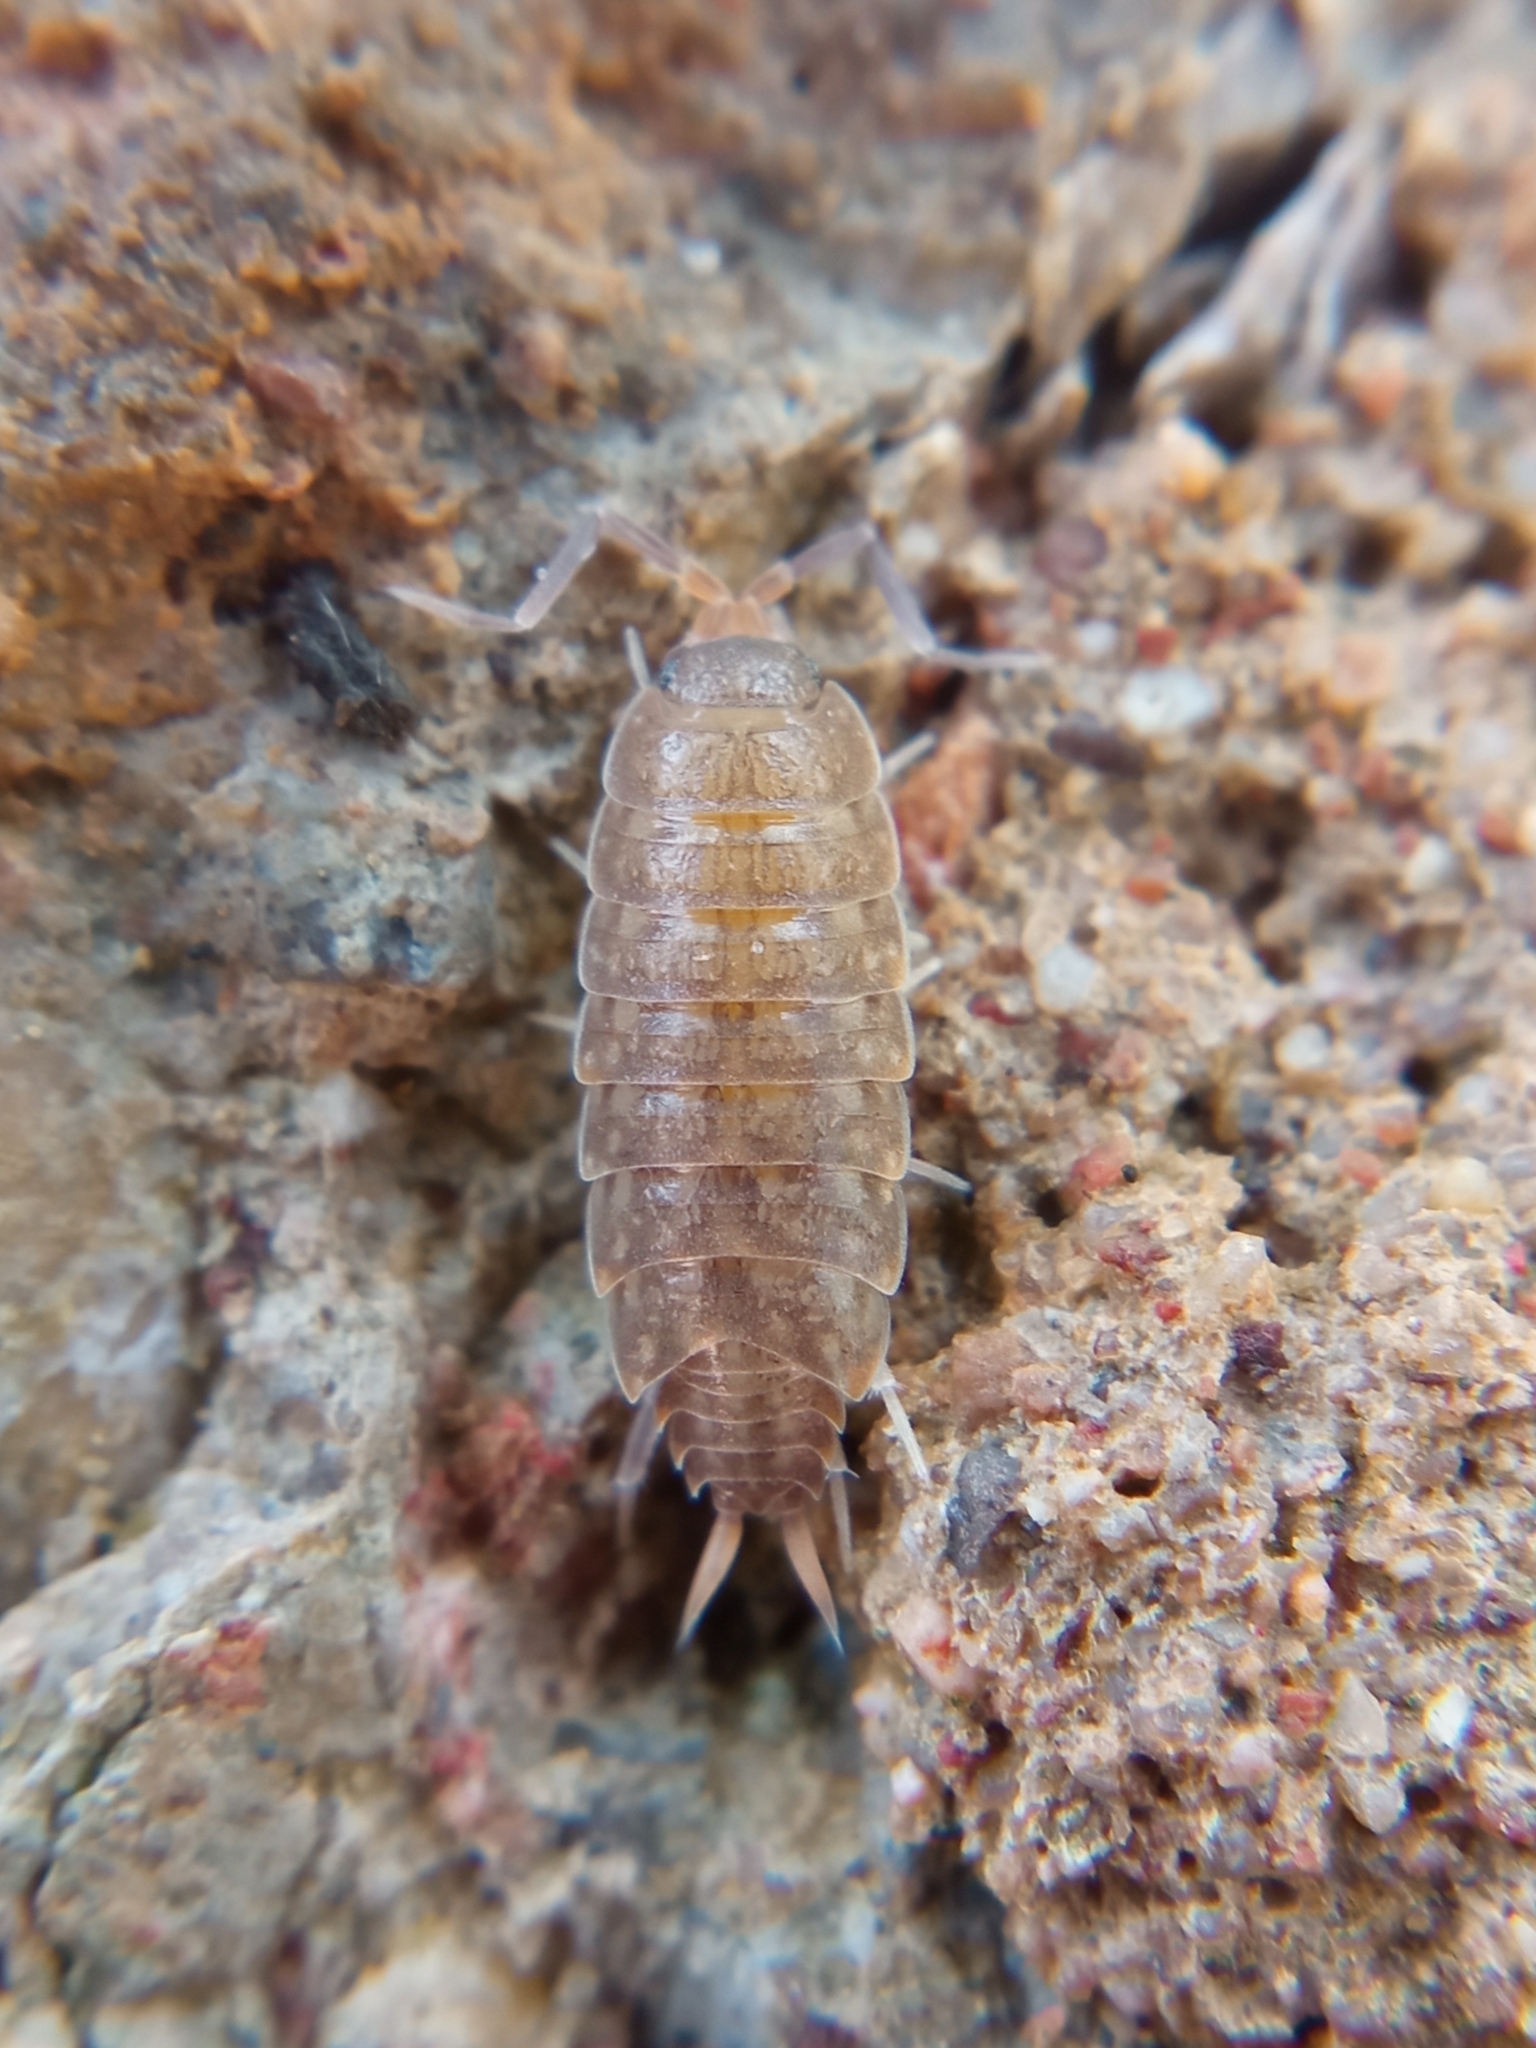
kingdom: Animalia
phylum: Arthropoda
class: Malacostraca
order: Isopoda
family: Agnaridae
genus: Orthometopon
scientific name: Orthometopon planum
